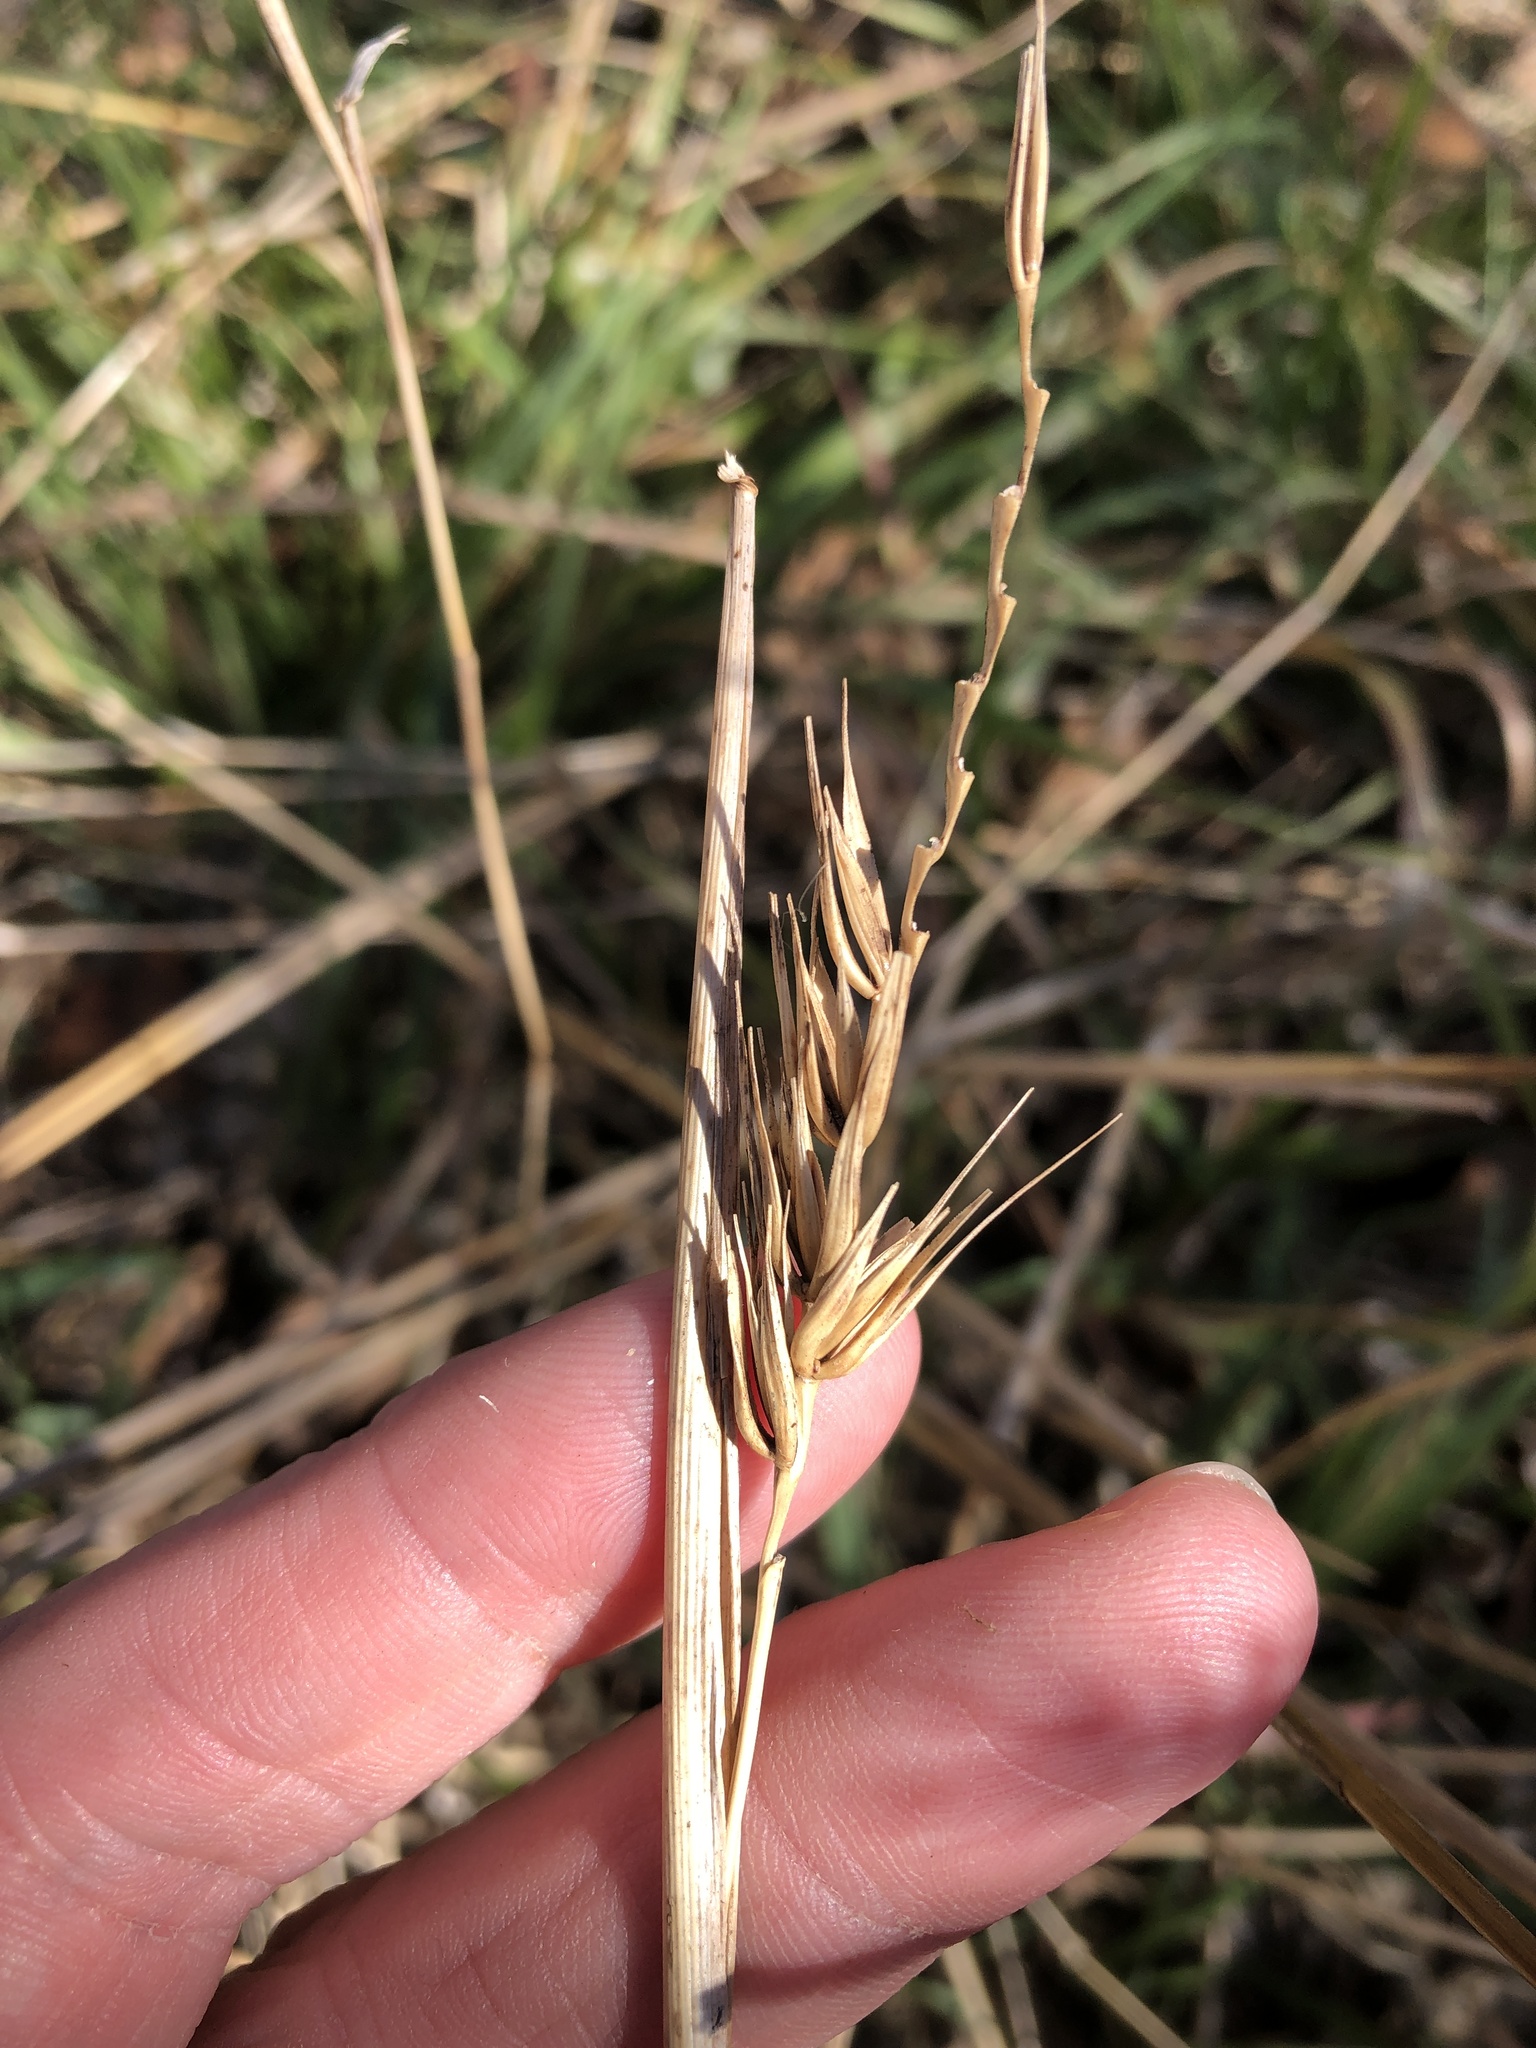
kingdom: Plantae
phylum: Tracheophyta
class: Liliopsida
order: Poales
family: Poaceae
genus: Elymus
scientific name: Elymus virginicus
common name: Common eastern wildrye
